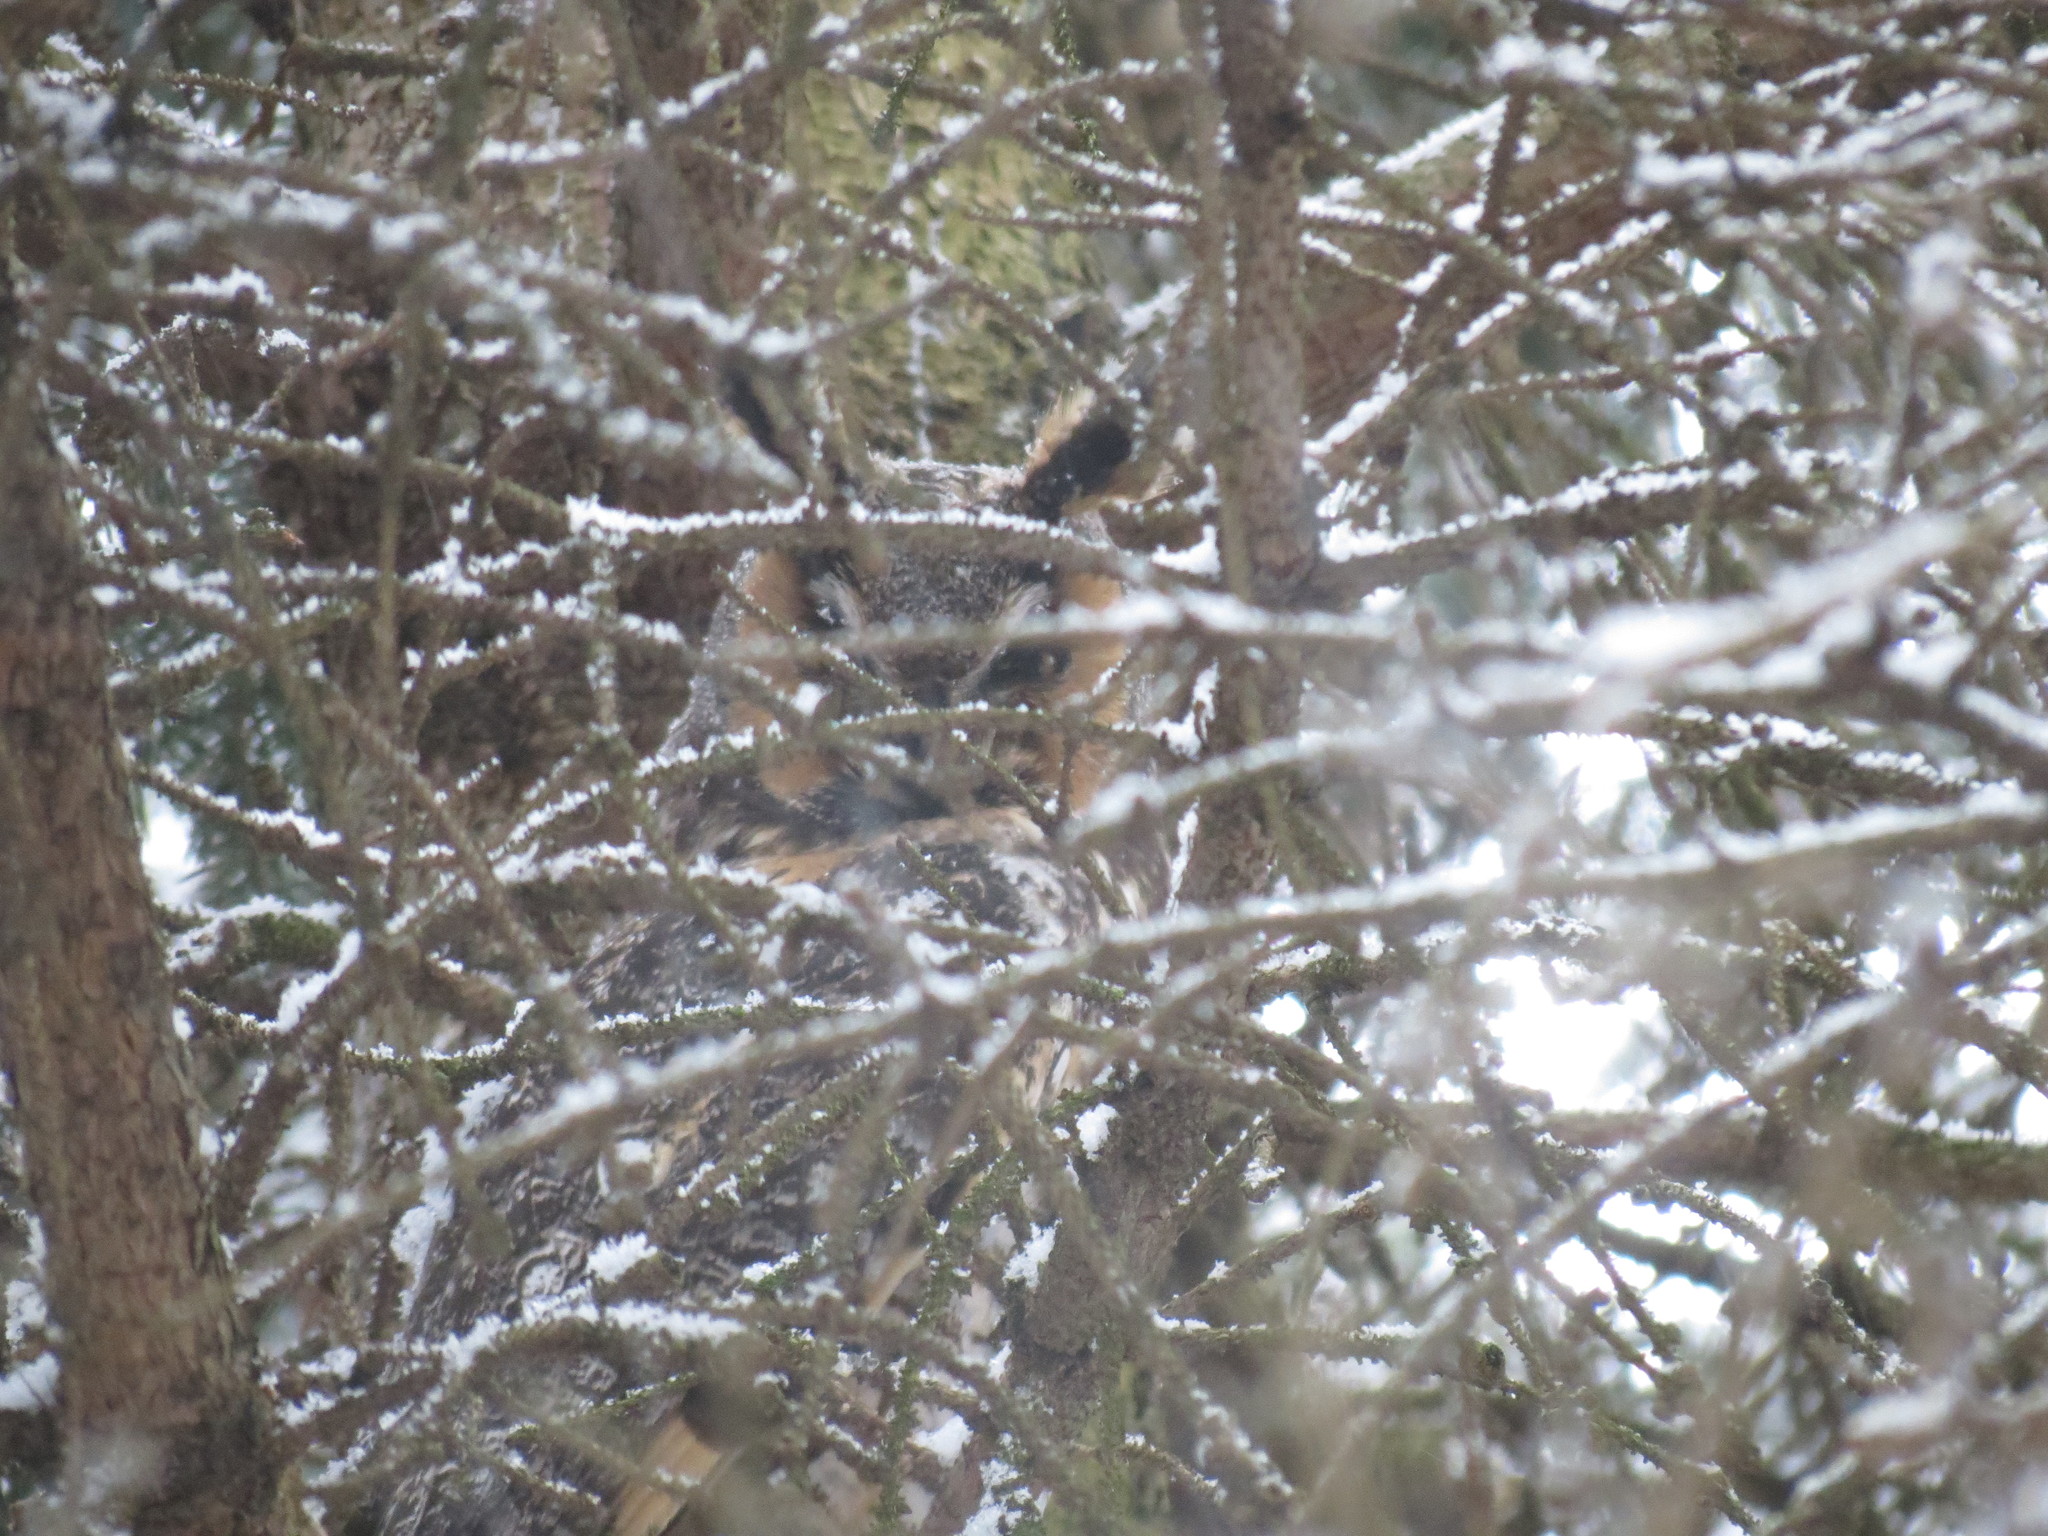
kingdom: Animalia
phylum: Chordata
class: Aves
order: Strigiformes
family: Strigidae
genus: Asio
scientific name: Asio otus
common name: Long-eared owl
